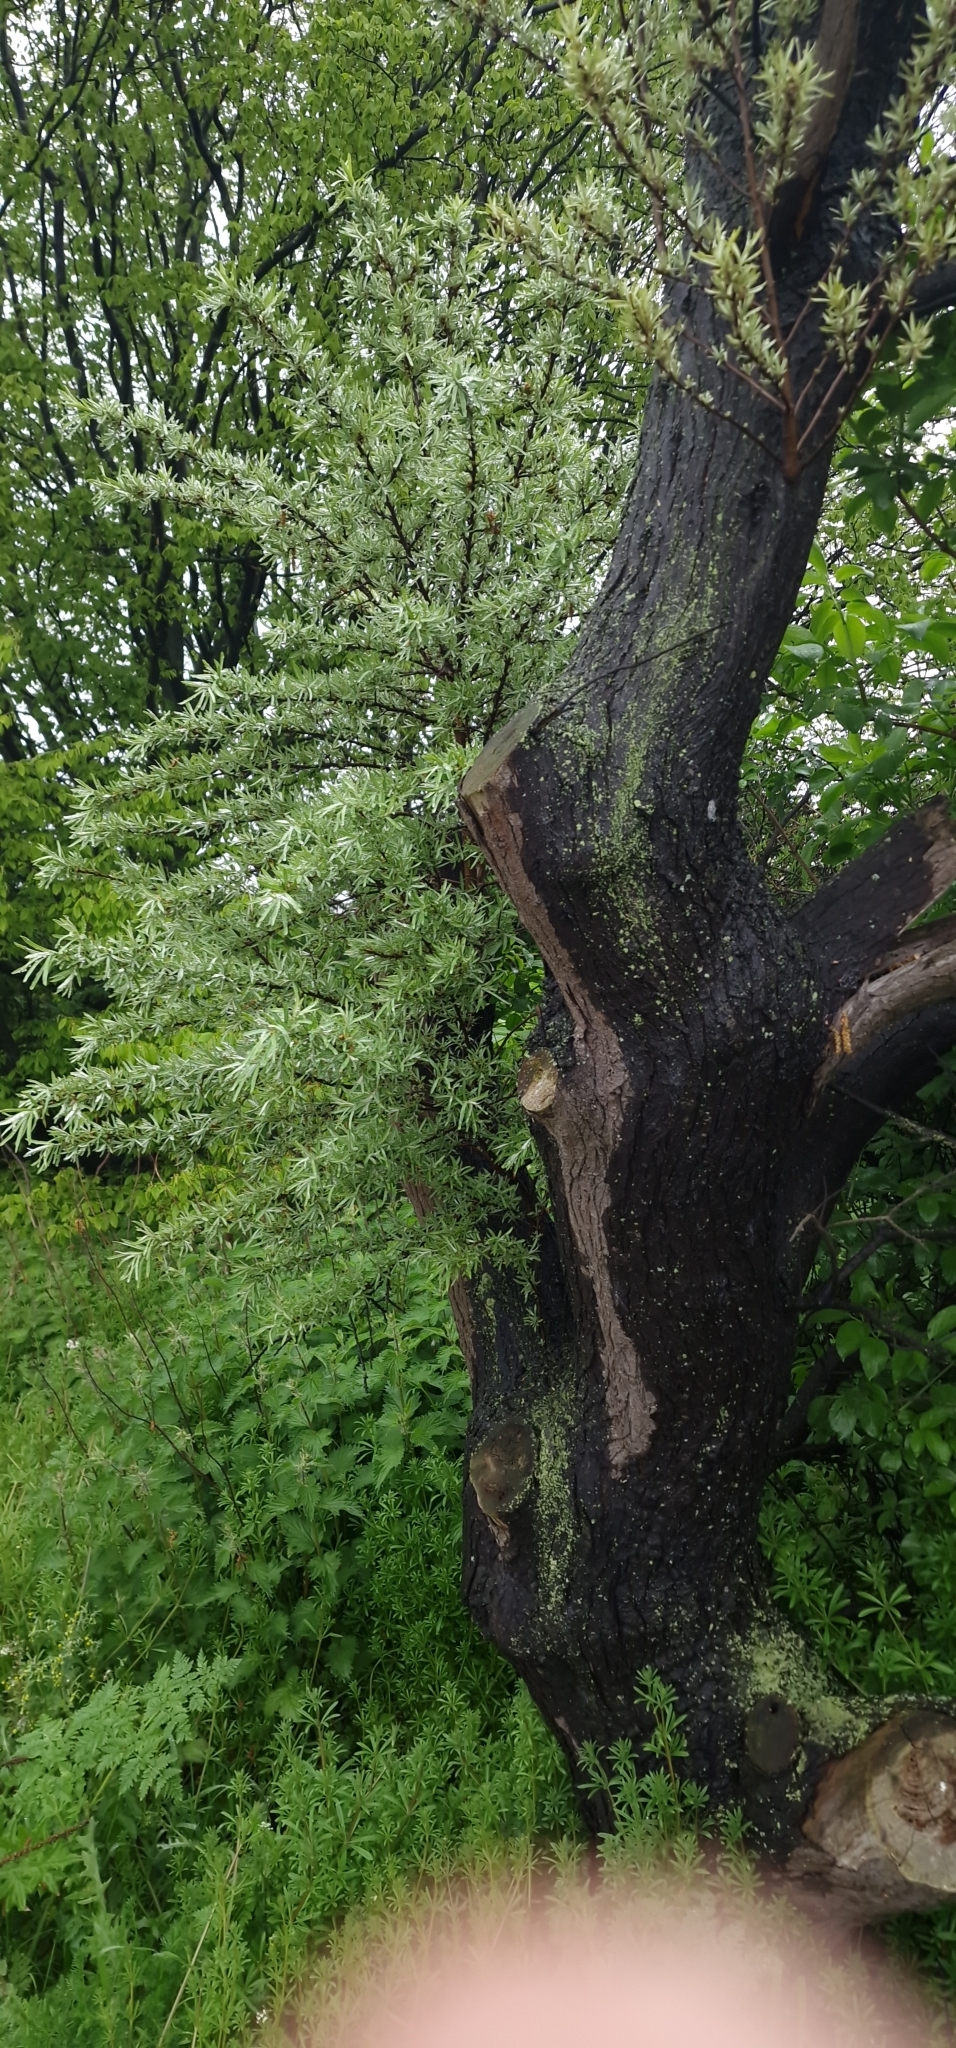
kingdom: Plantae
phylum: Tracheophyta
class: Magnoliopsida
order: Rosales
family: Elaeagnaceae
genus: Hippophae
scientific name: Hippophae rhamnoides
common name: Sea-buckthorn
